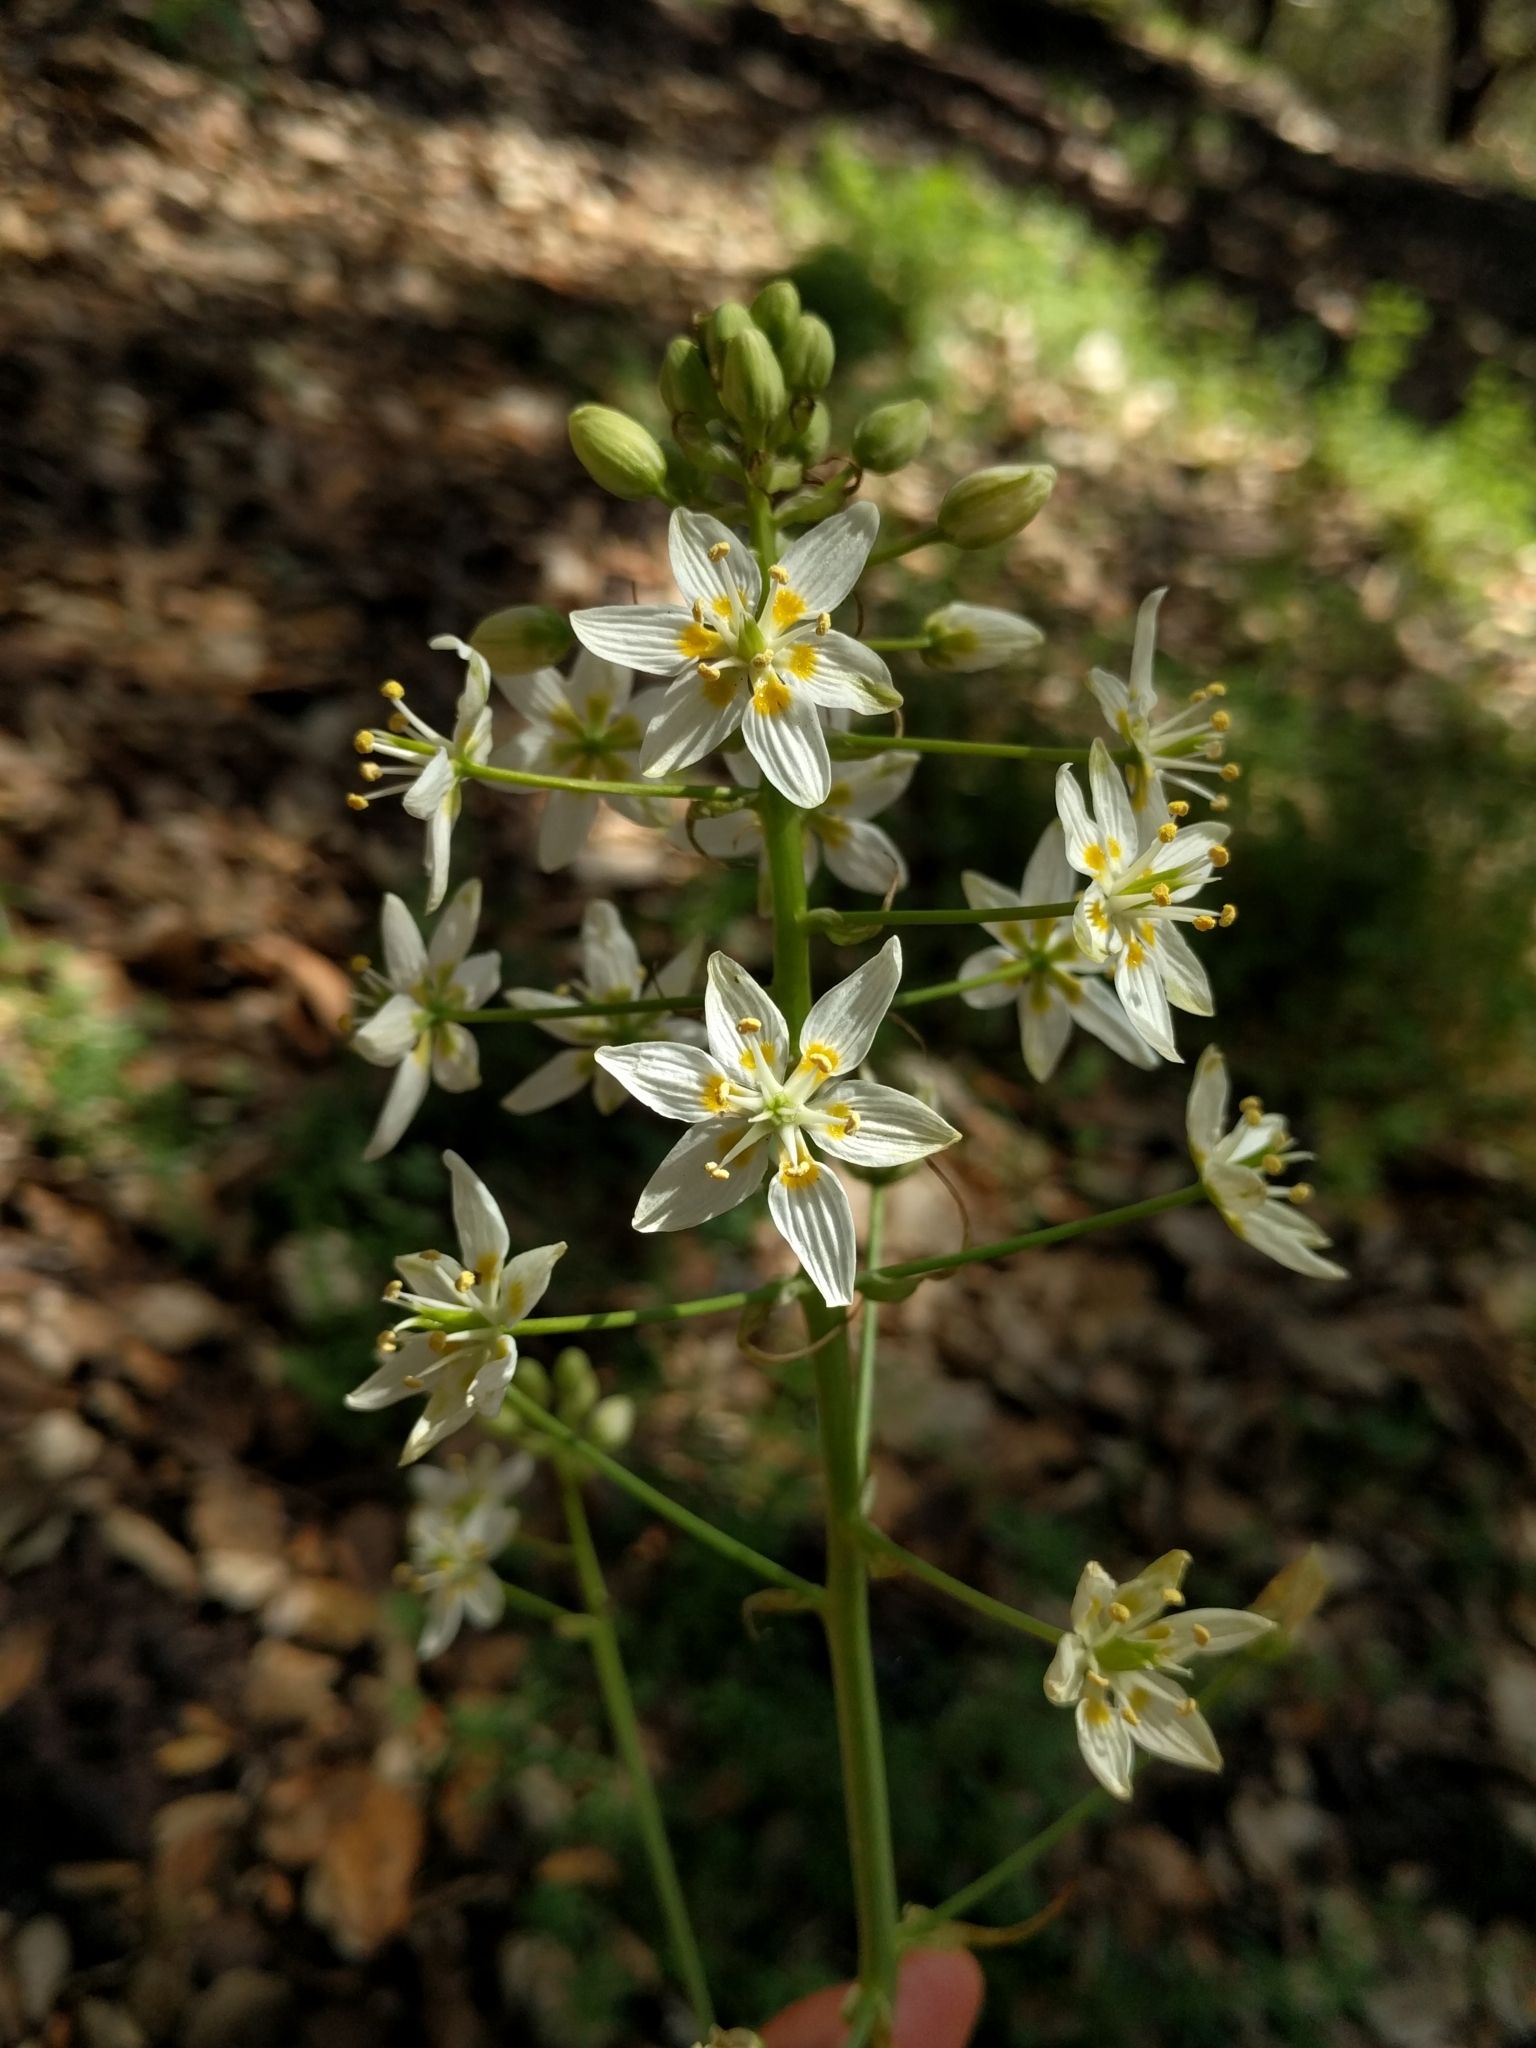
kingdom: Plantae
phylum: Tracheophyta
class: Liliopsida
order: Liliales
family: Melanthiaceae
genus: Toxicoscordion
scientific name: Toxicoscordion fremontii
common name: Fremont's death camas
